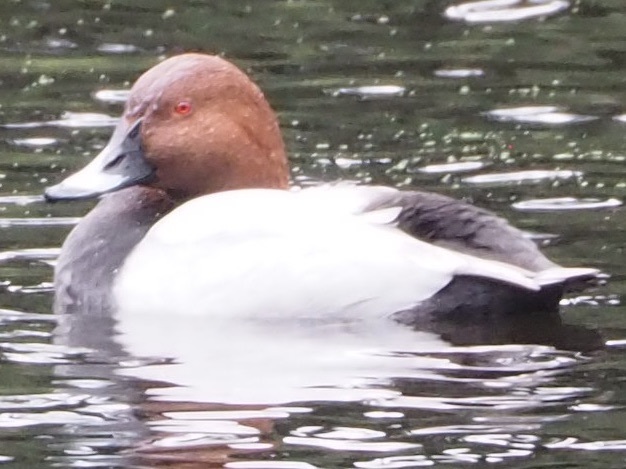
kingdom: Animalia
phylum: Chordata
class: Aves
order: Anseriformes
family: Anatidae
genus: Aythya
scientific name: Aythya ferina
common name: Common pochard
